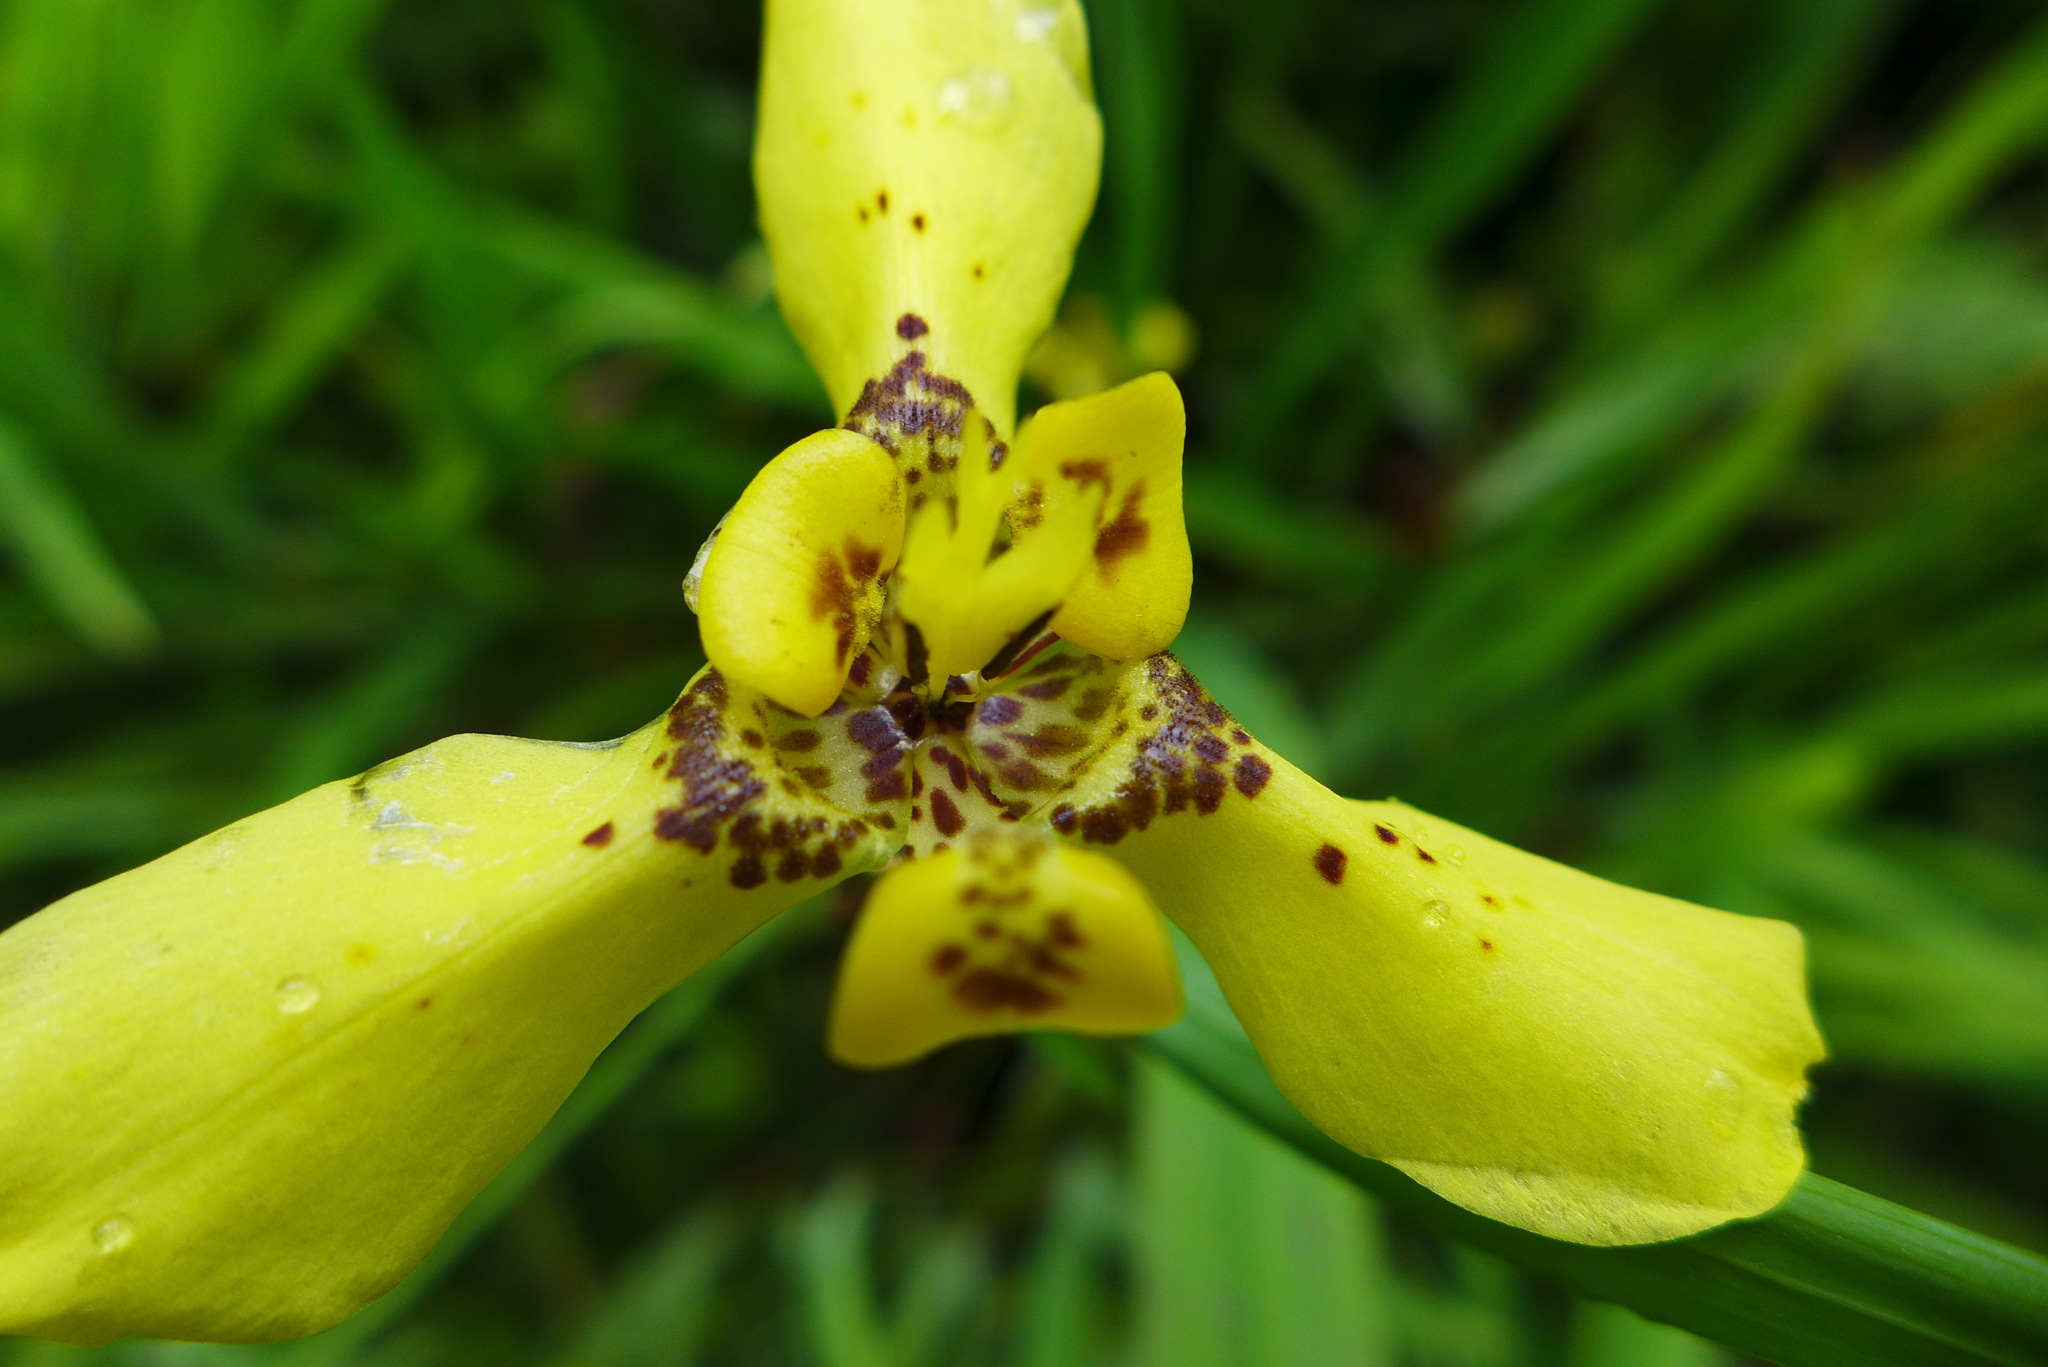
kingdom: Plantae
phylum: Tracheophyta
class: Liliopsida
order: Asparagales
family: Iridaceae
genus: Trimezia
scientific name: Trimezia steyermarkii
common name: Trimezia
